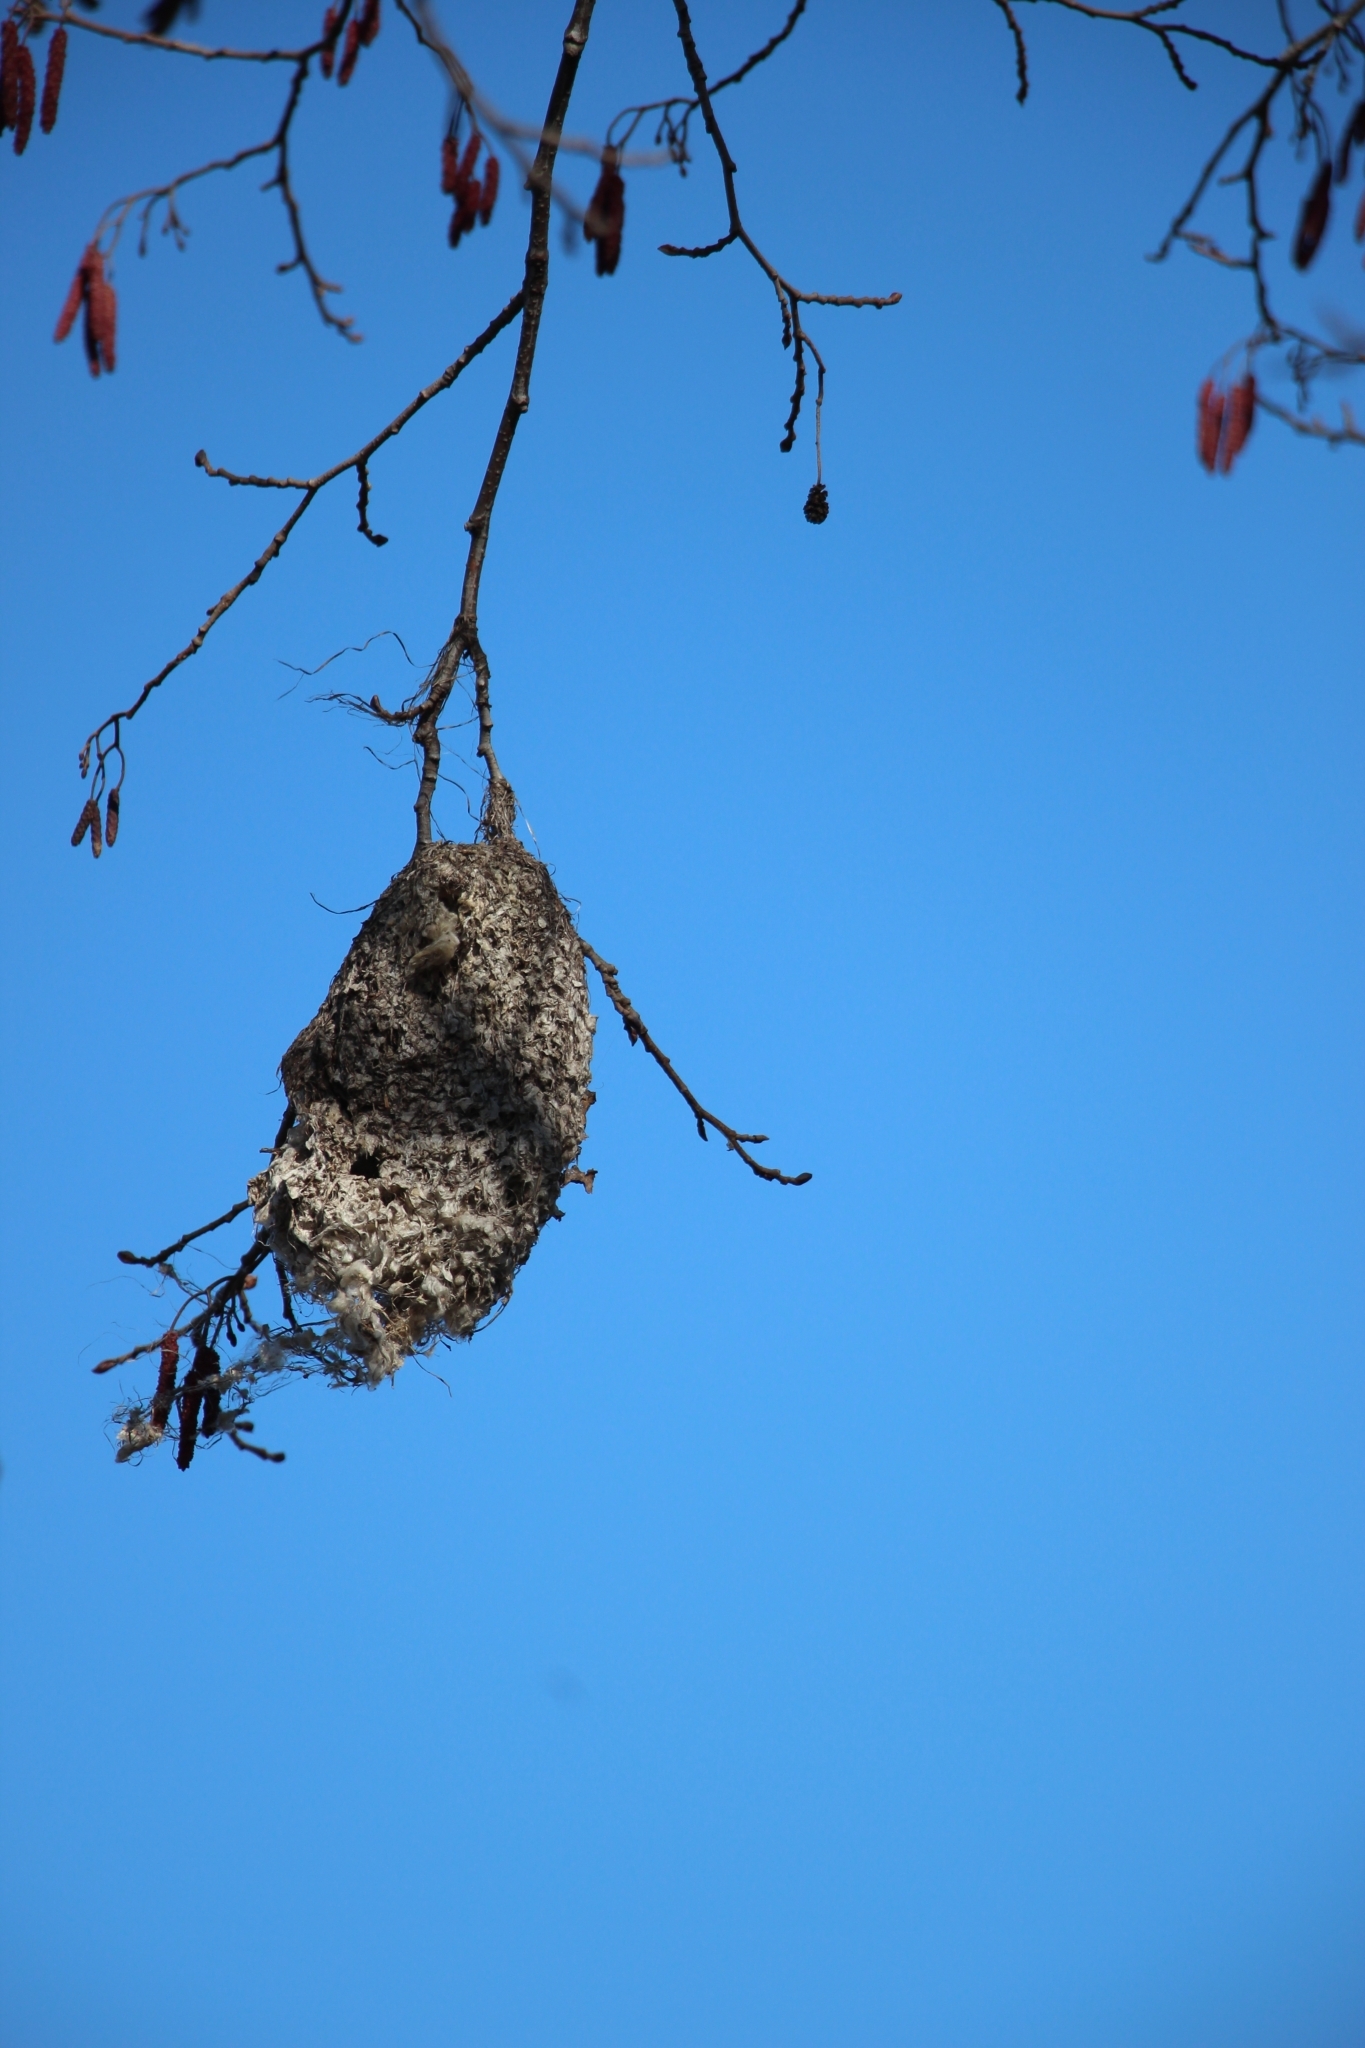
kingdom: Animalia
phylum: Chordata
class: Aves
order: Passeriformes
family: Remizidae
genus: Remiz
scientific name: Remiz pendulinus
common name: Eurasian penduline tit
